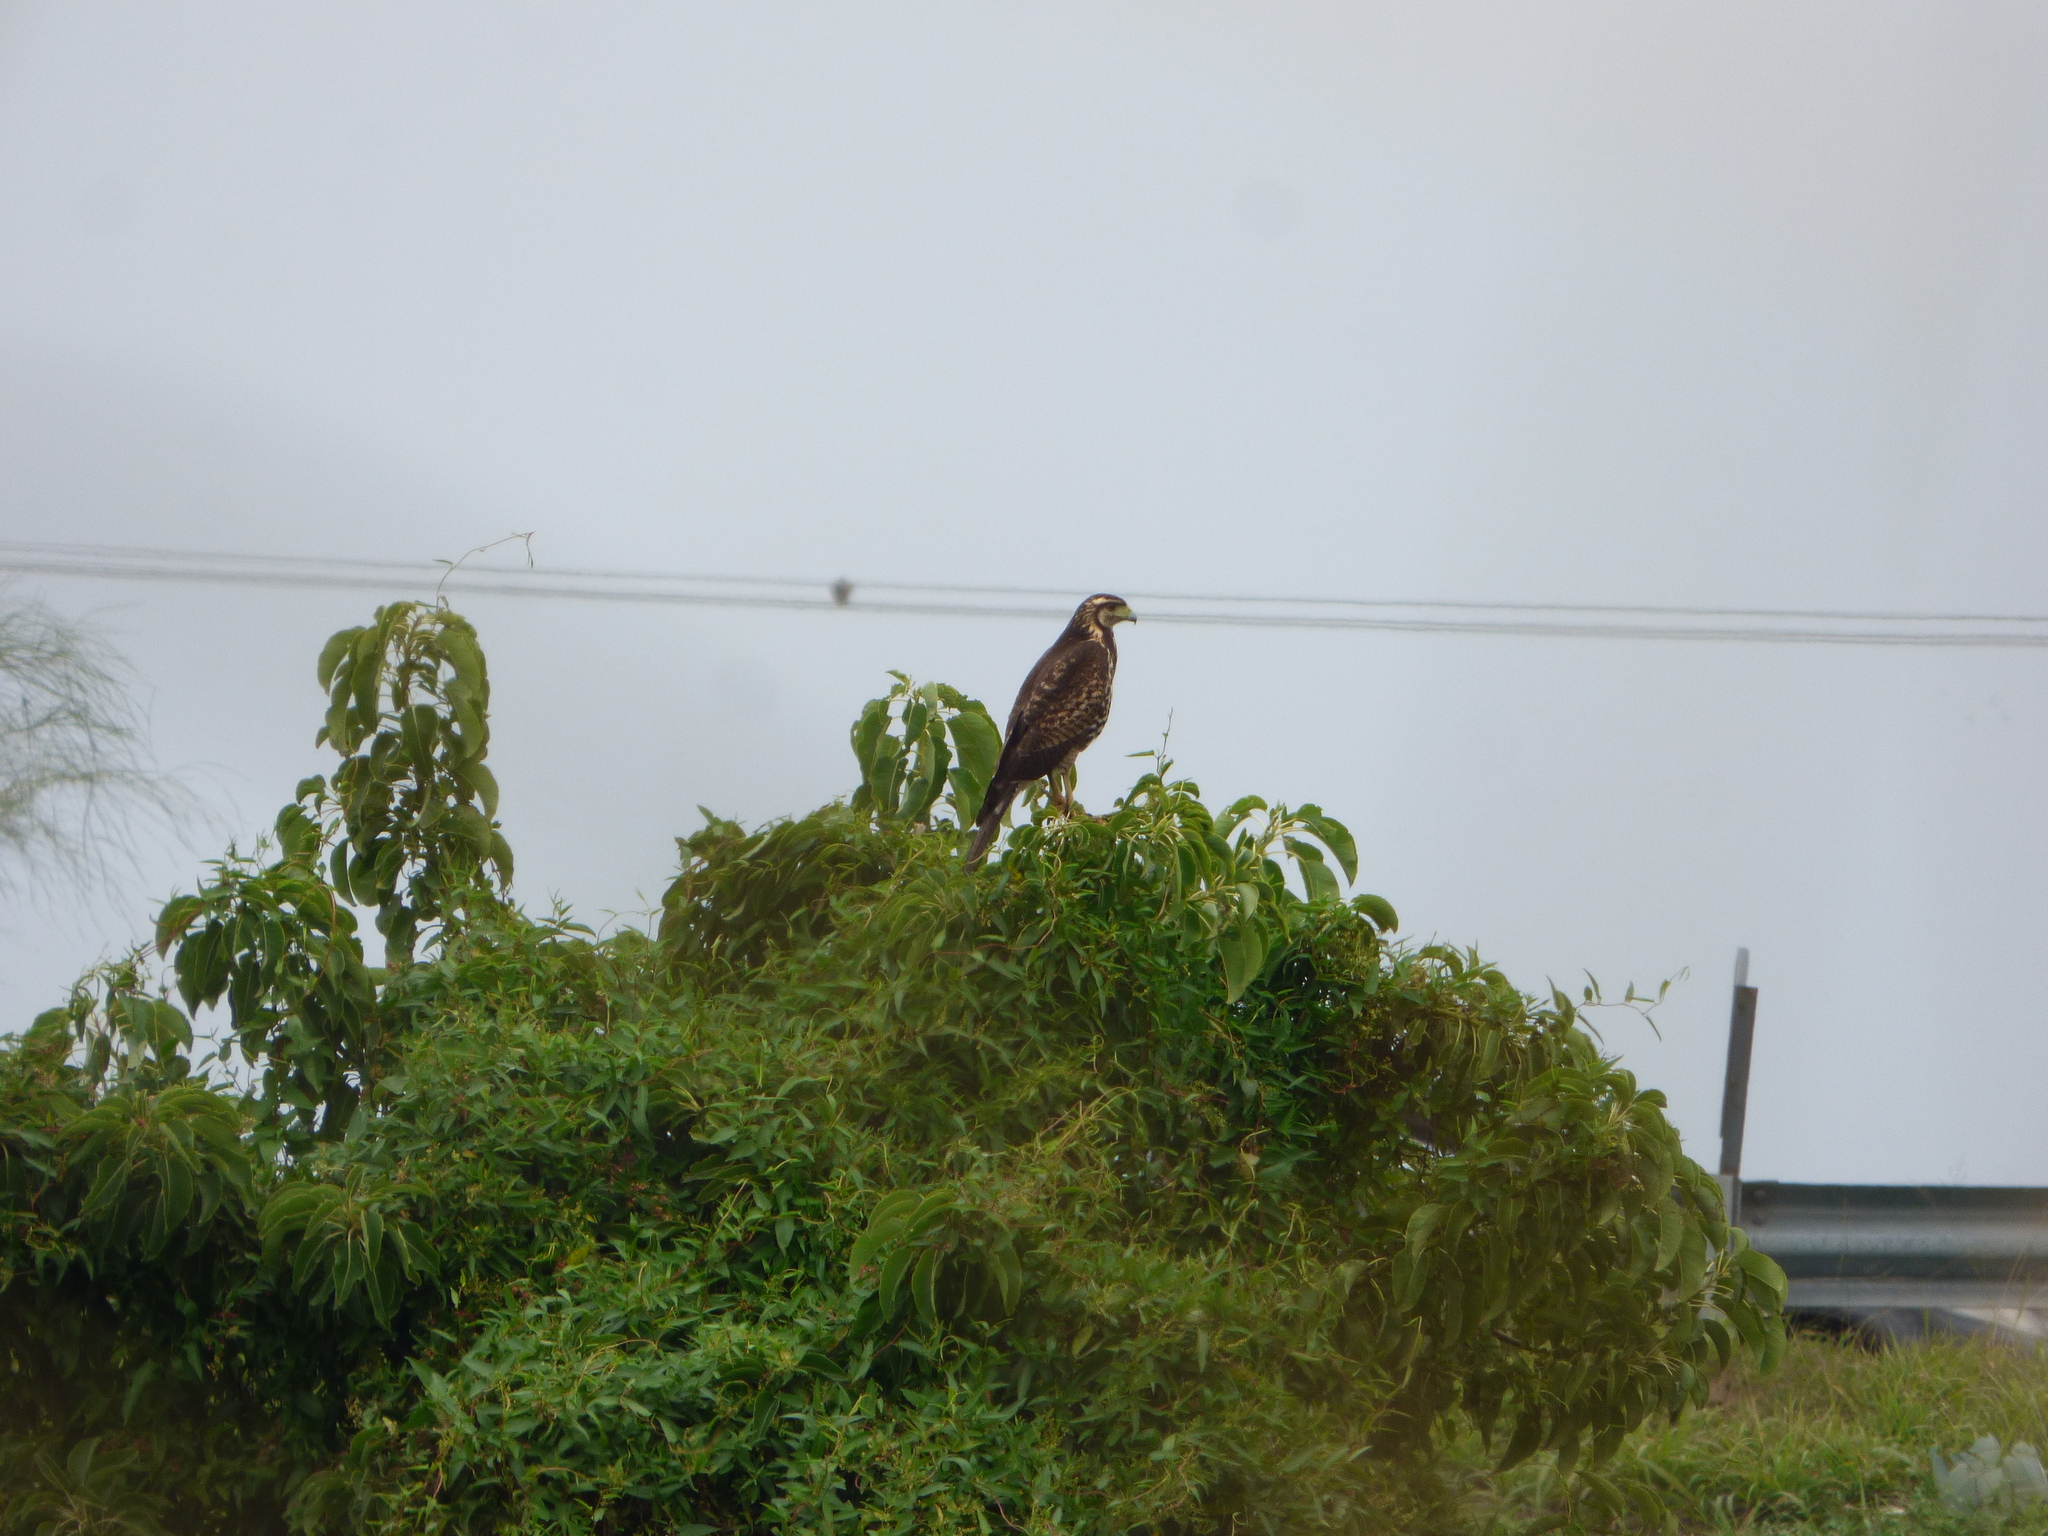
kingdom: Animalia
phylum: Chordata
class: Aves
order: Accipitriformes
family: Accipitridae
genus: Parabuteo
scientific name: Parabuteo unicinctus
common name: Harris's hawk
